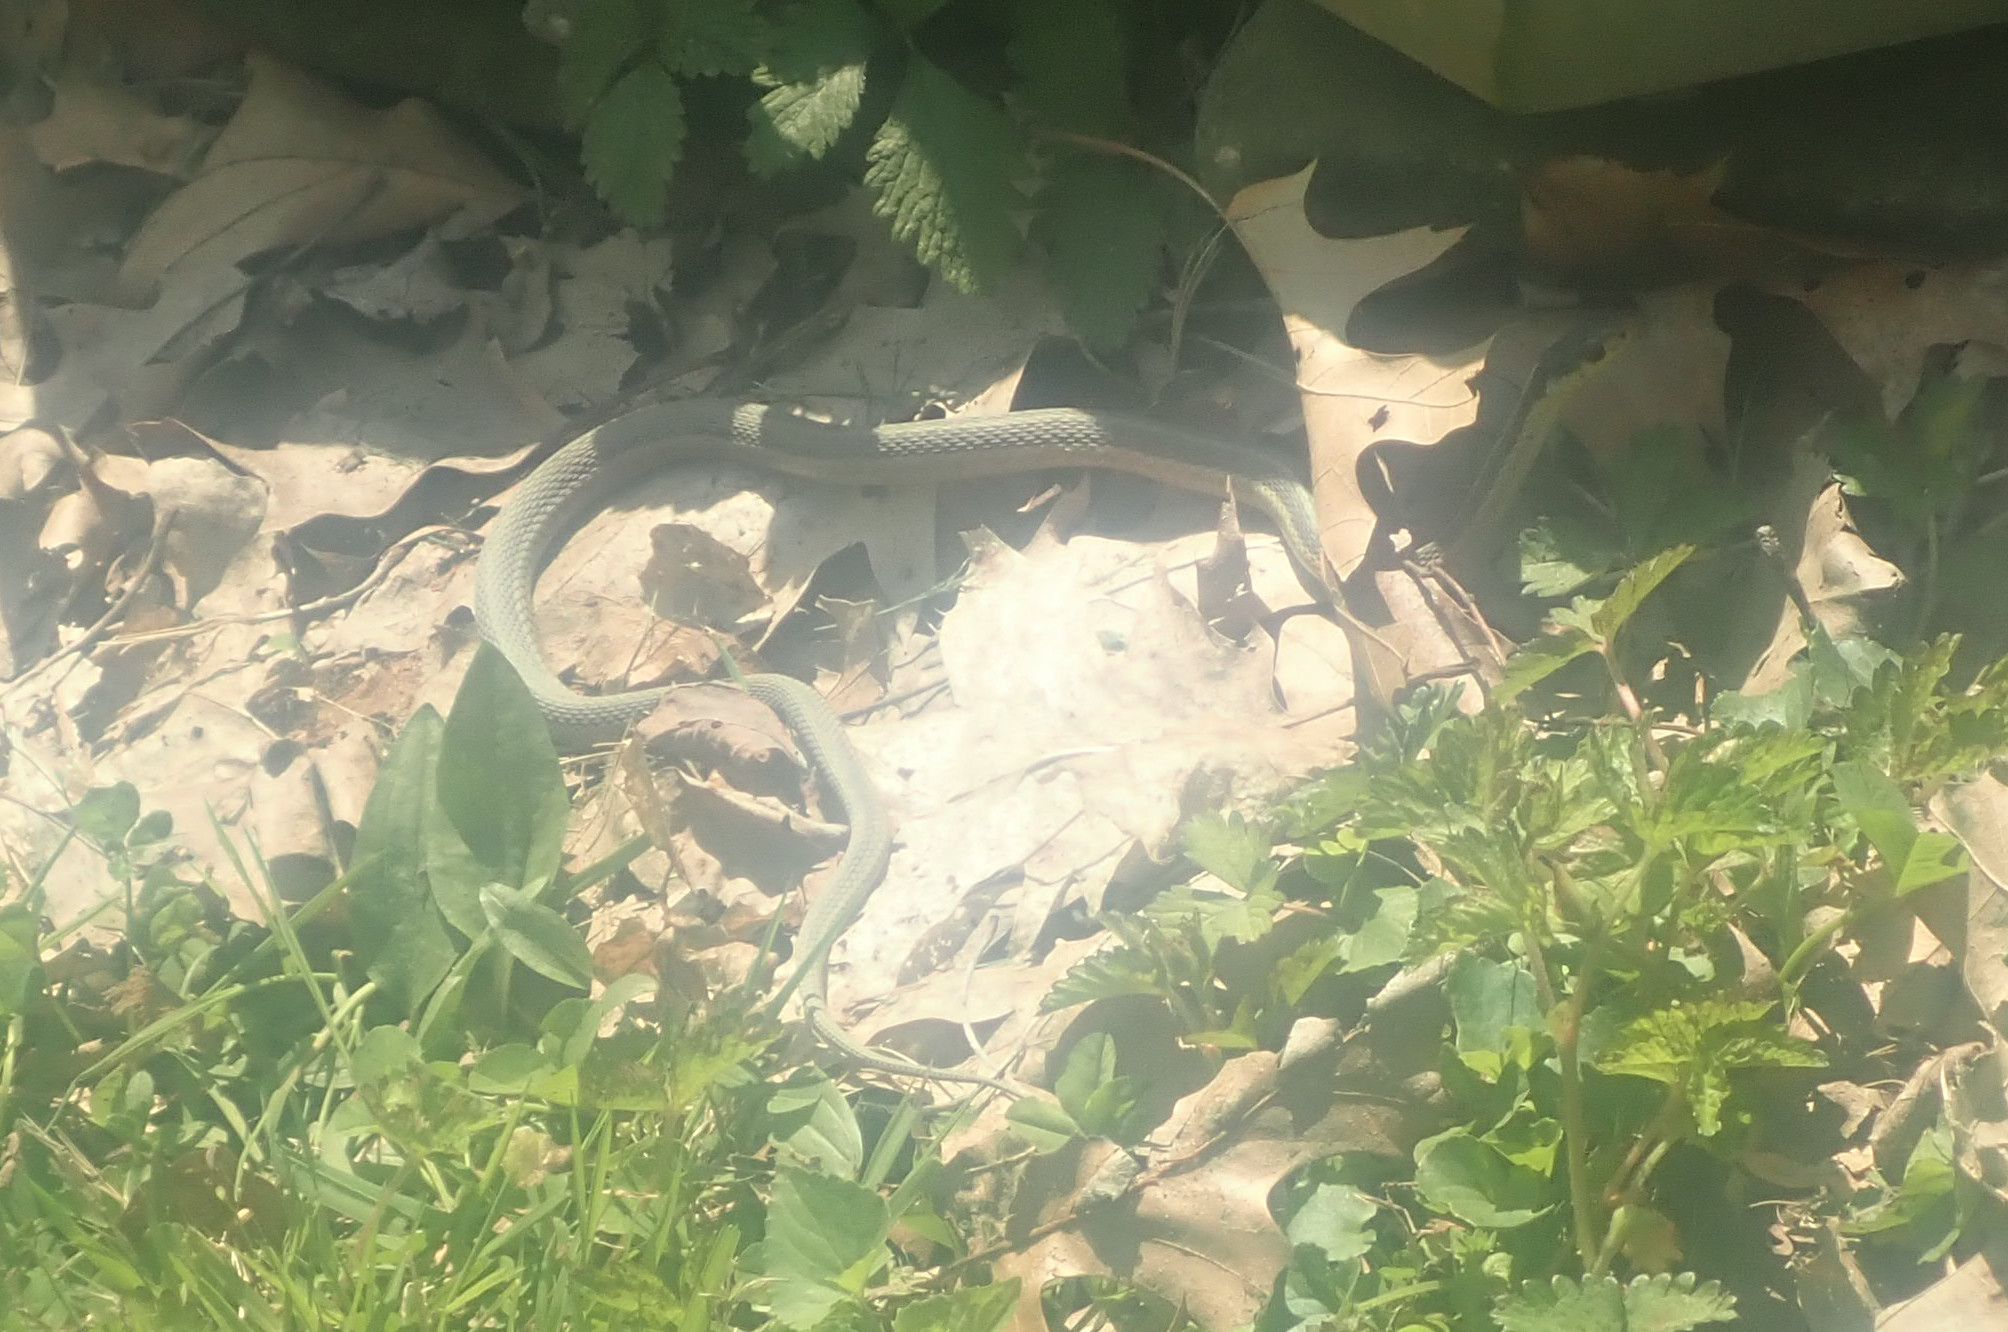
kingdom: Animalia
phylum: Chordata
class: Squamata
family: Colubridae
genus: Thamnophis
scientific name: Thamnophis sirtalis
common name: Common garter snake
